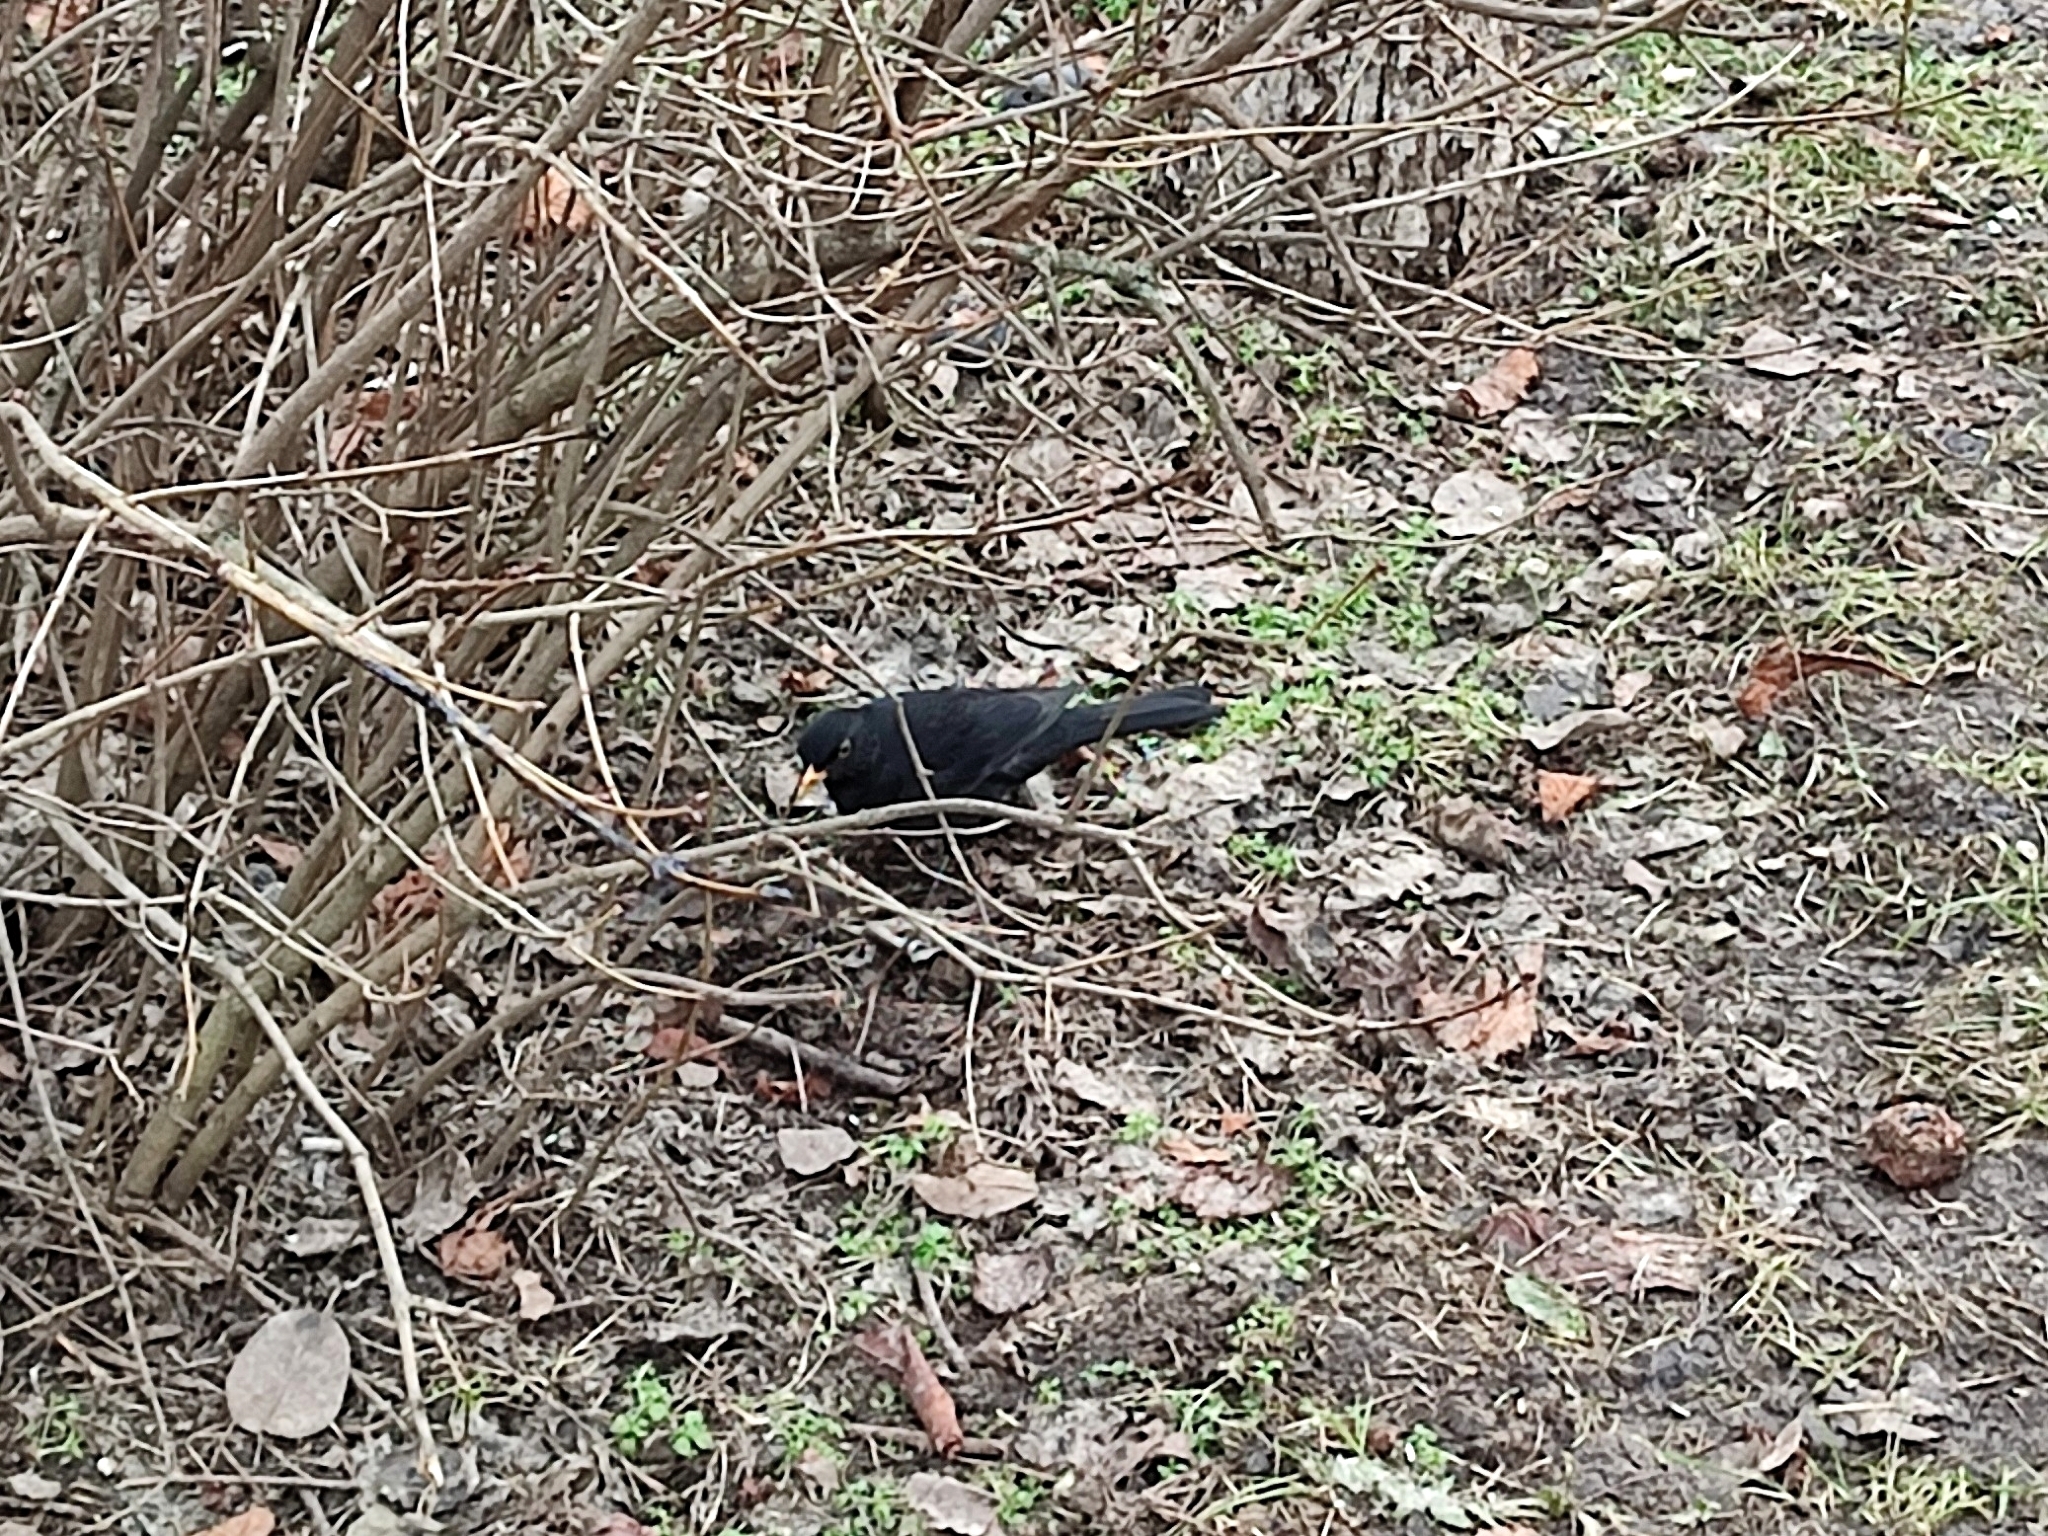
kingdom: Animalia
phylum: Chordata
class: Aves
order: Passeriformes
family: Turdidae
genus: Turdus
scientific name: Turdus merula
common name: Common blackbird
